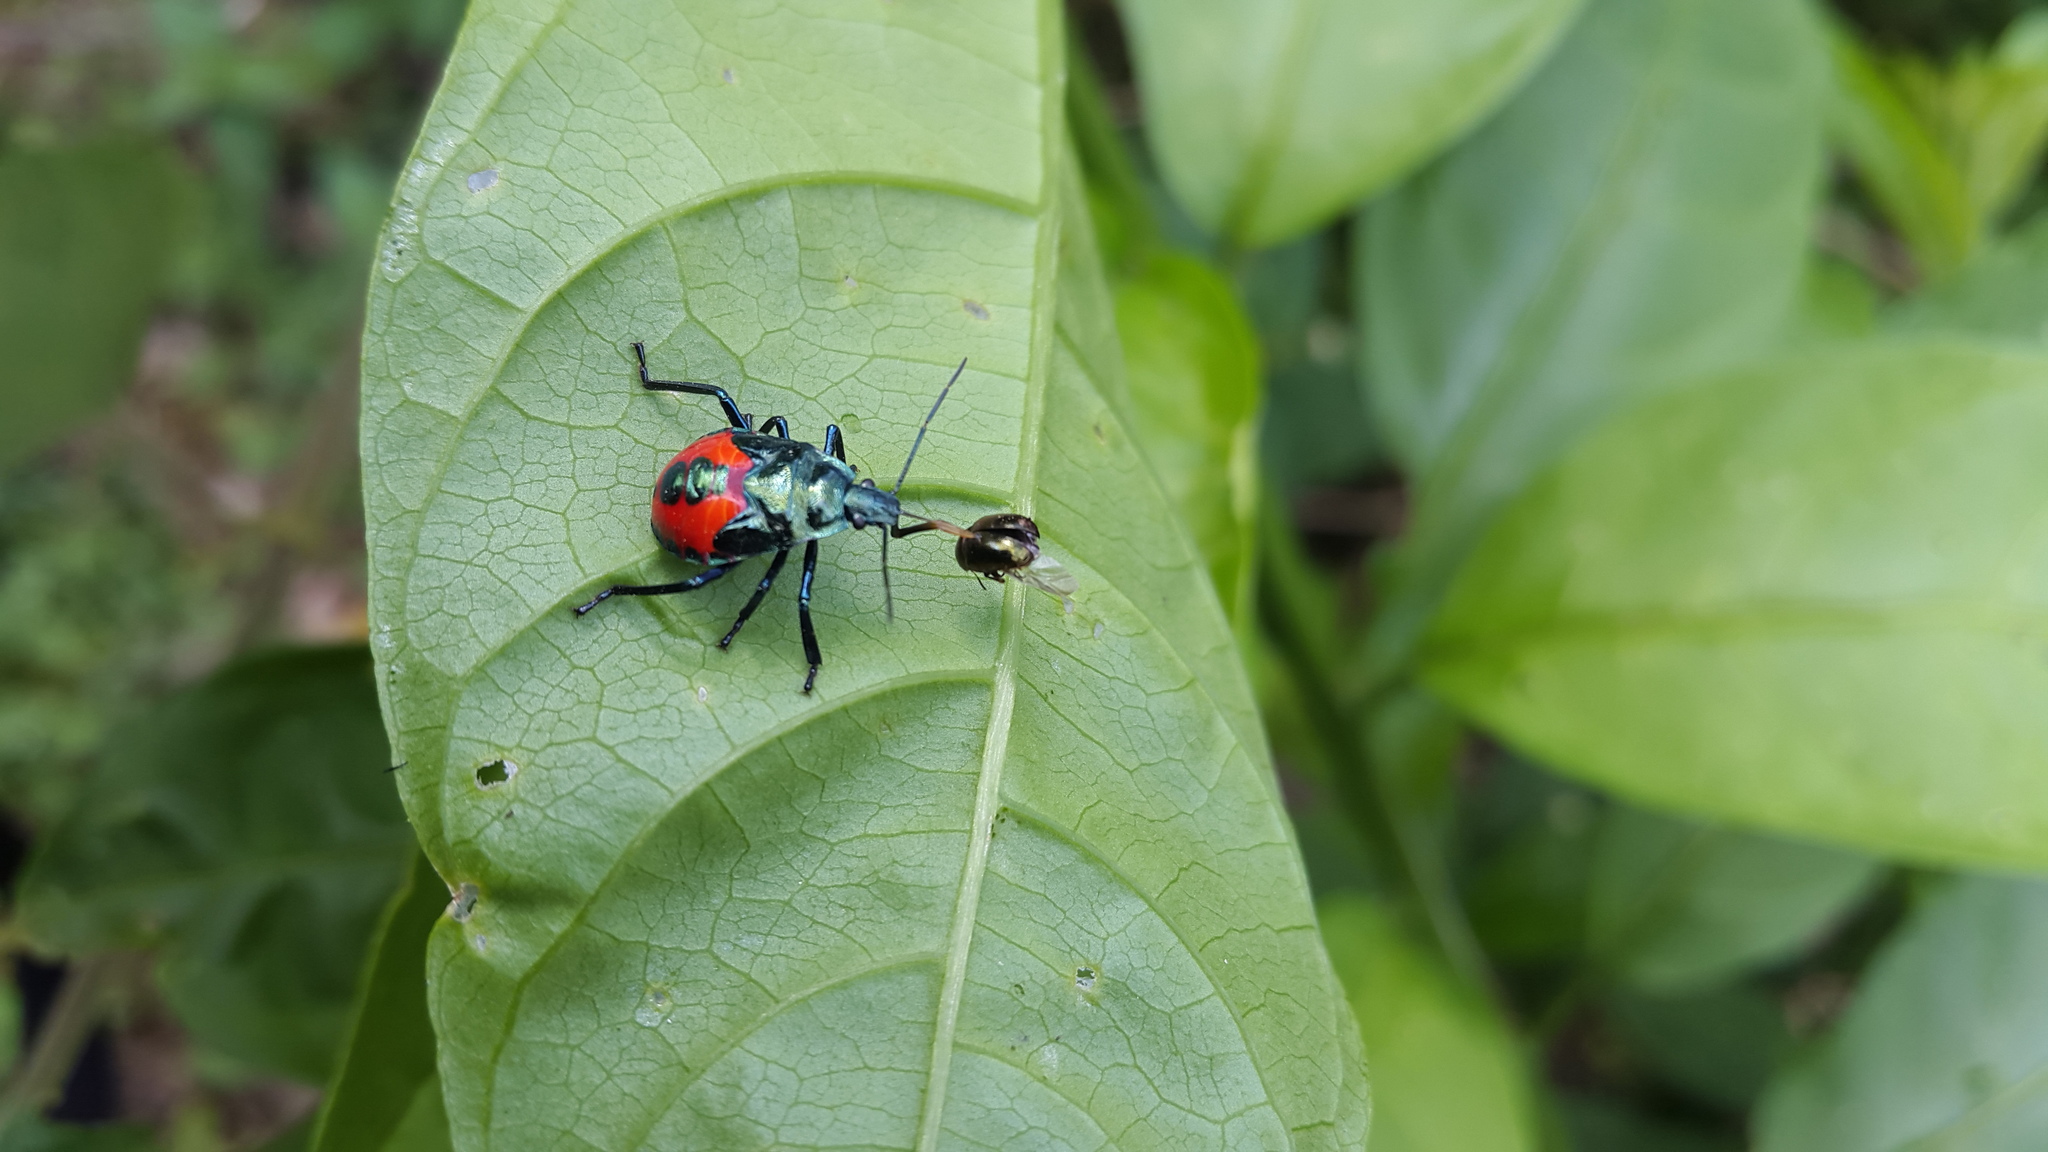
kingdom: Animalia
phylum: Arthropoda
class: Insecta
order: Hemiptera
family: Pentatomidae
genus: Euthyrhynchus
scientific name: Euthyrhynchus floridanus
